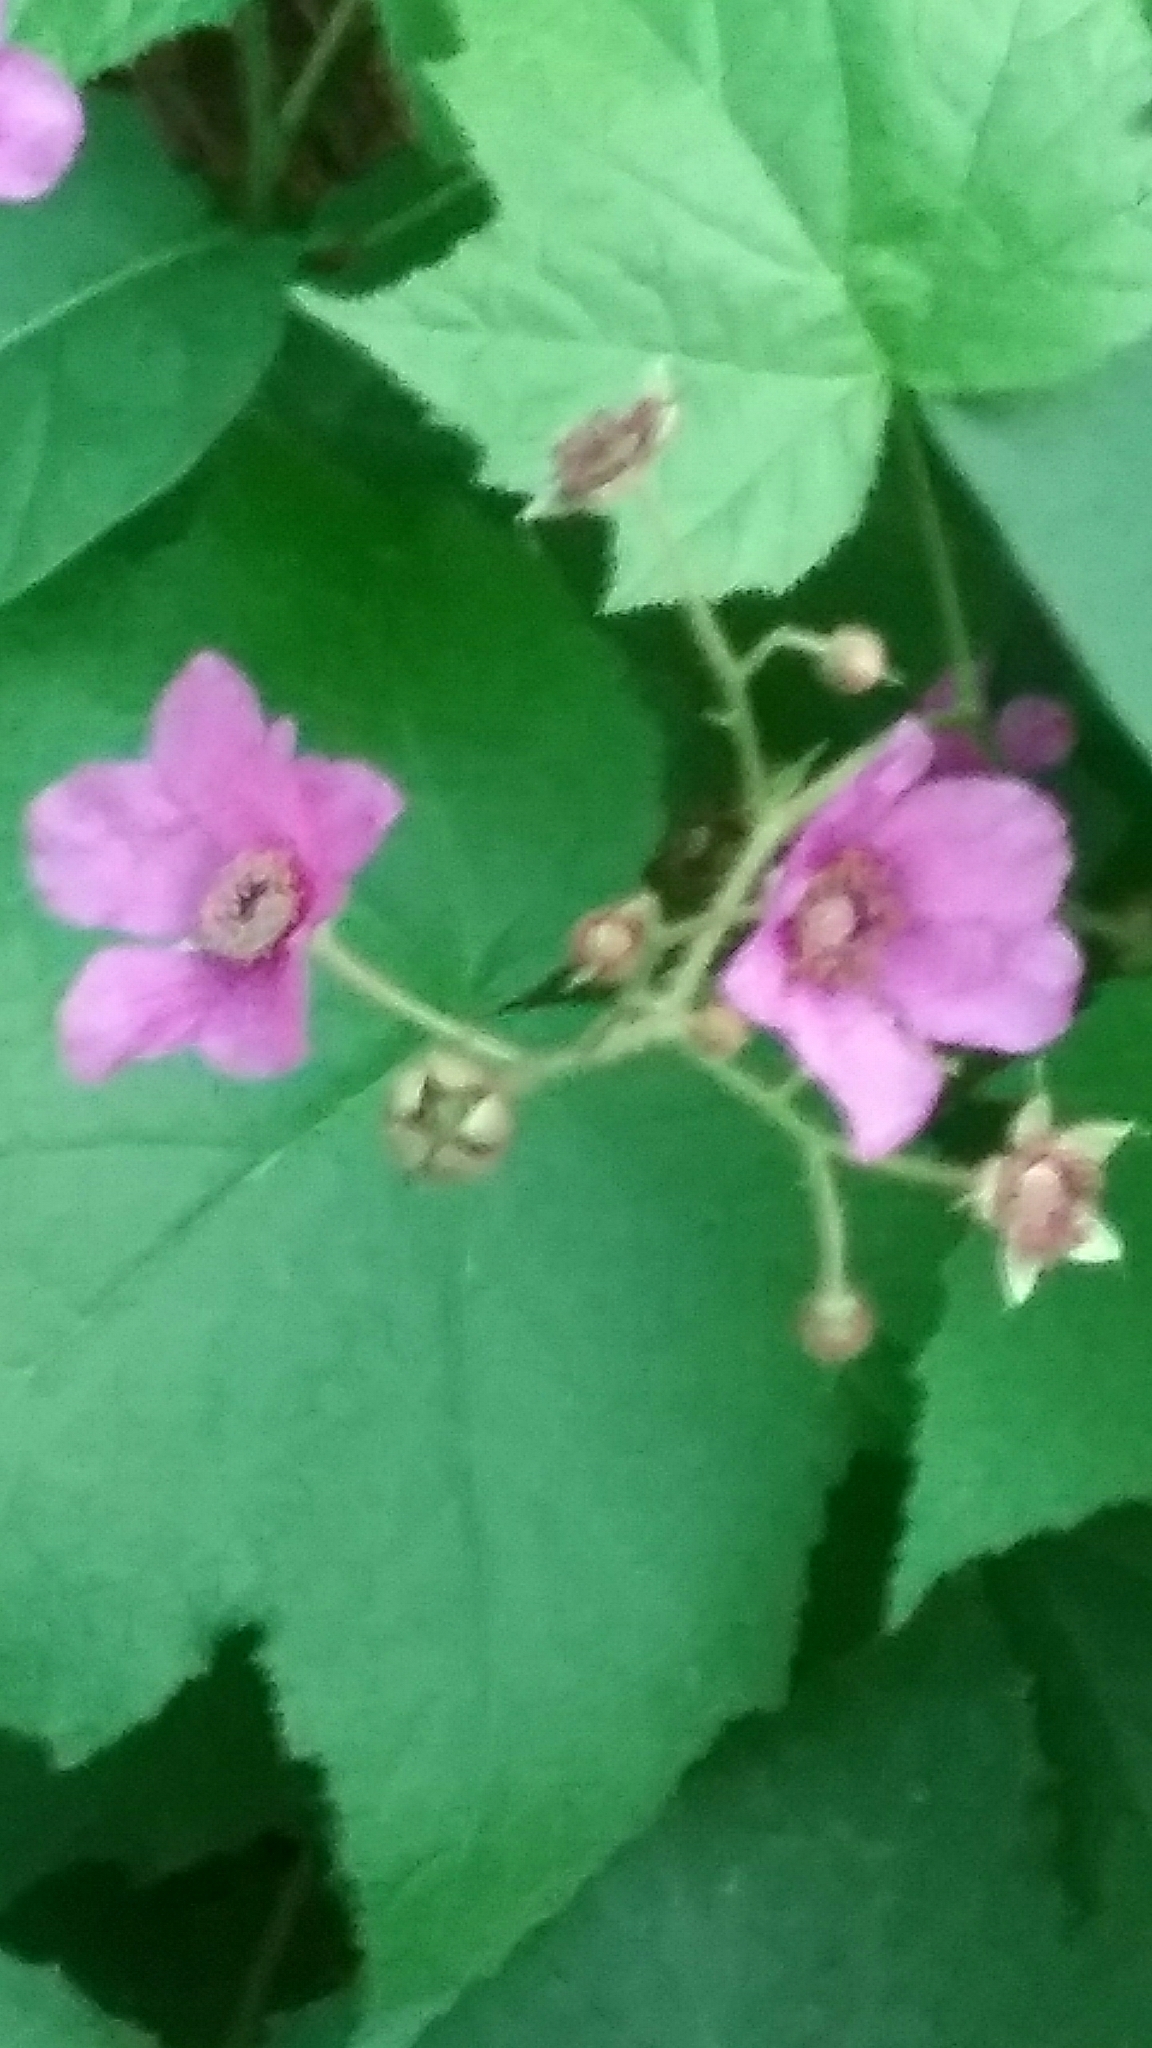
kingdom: Plantae
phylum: Tracheophyta
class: Magnoliopsida
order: Rosales
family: Rosaceae
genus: Rubus
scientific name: Rubus odoratus
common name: Purple-flowered raspberry
